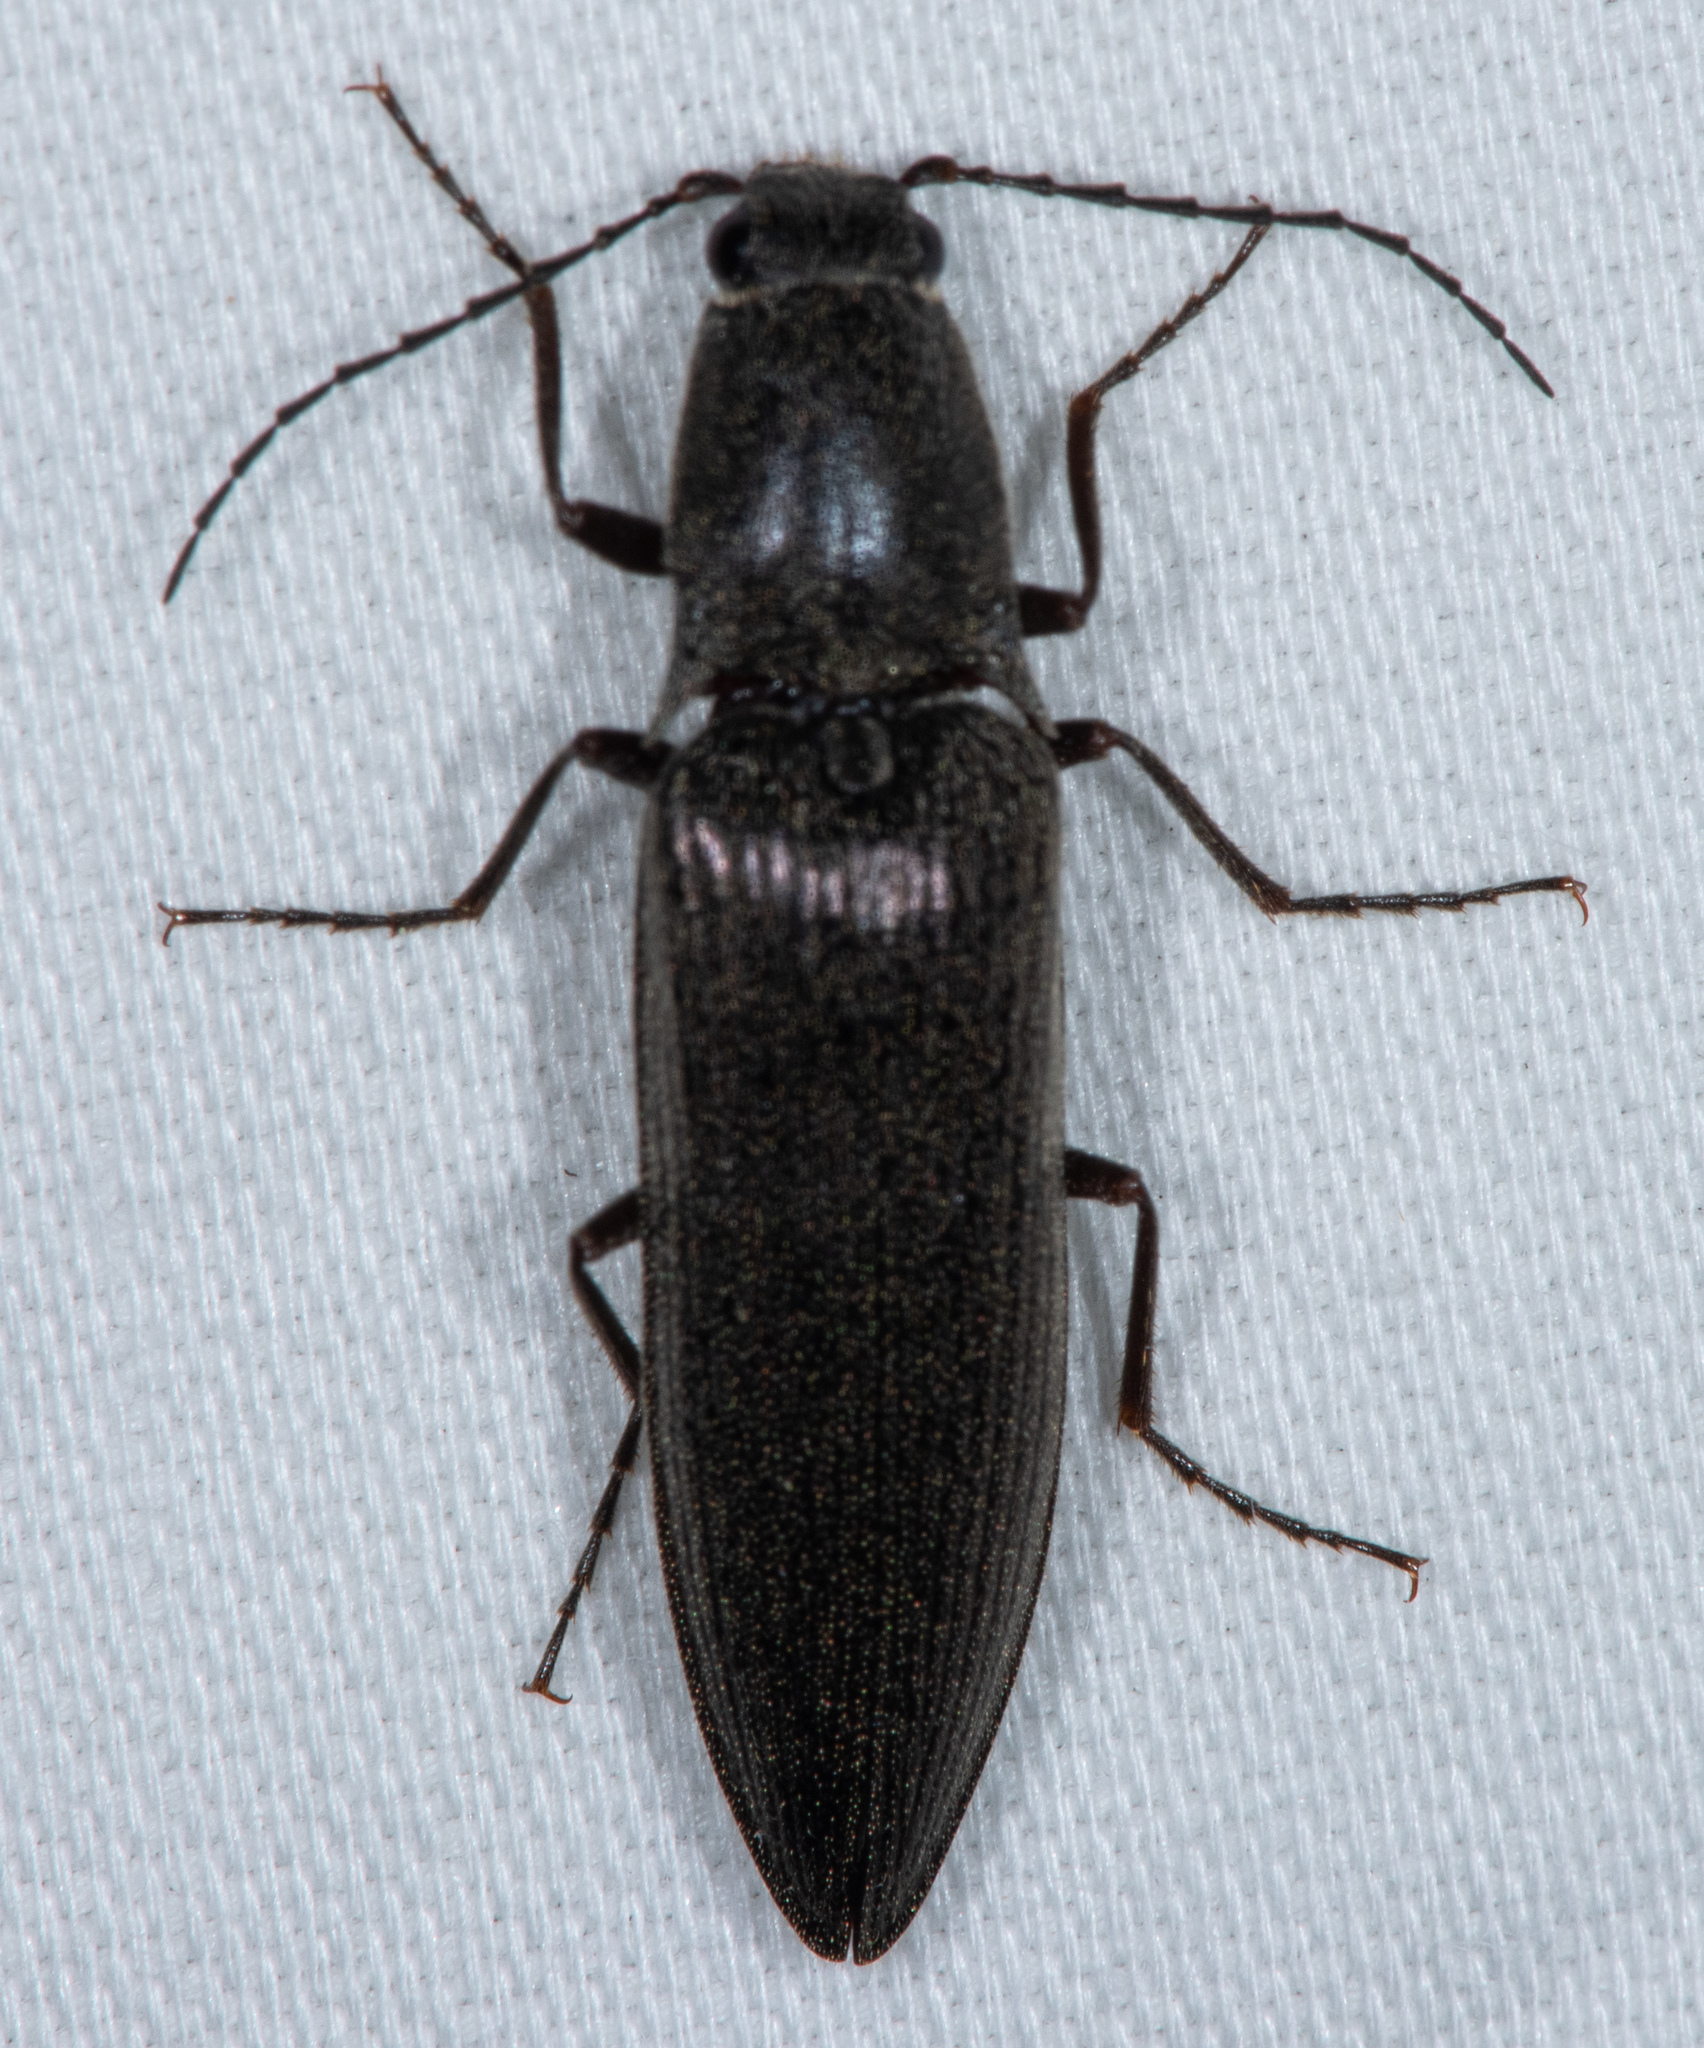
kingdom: Animalia
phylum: Arthropoda
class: Insecta
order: Coleoptera
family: Elateridae
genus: Proludius
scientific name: Proludius
